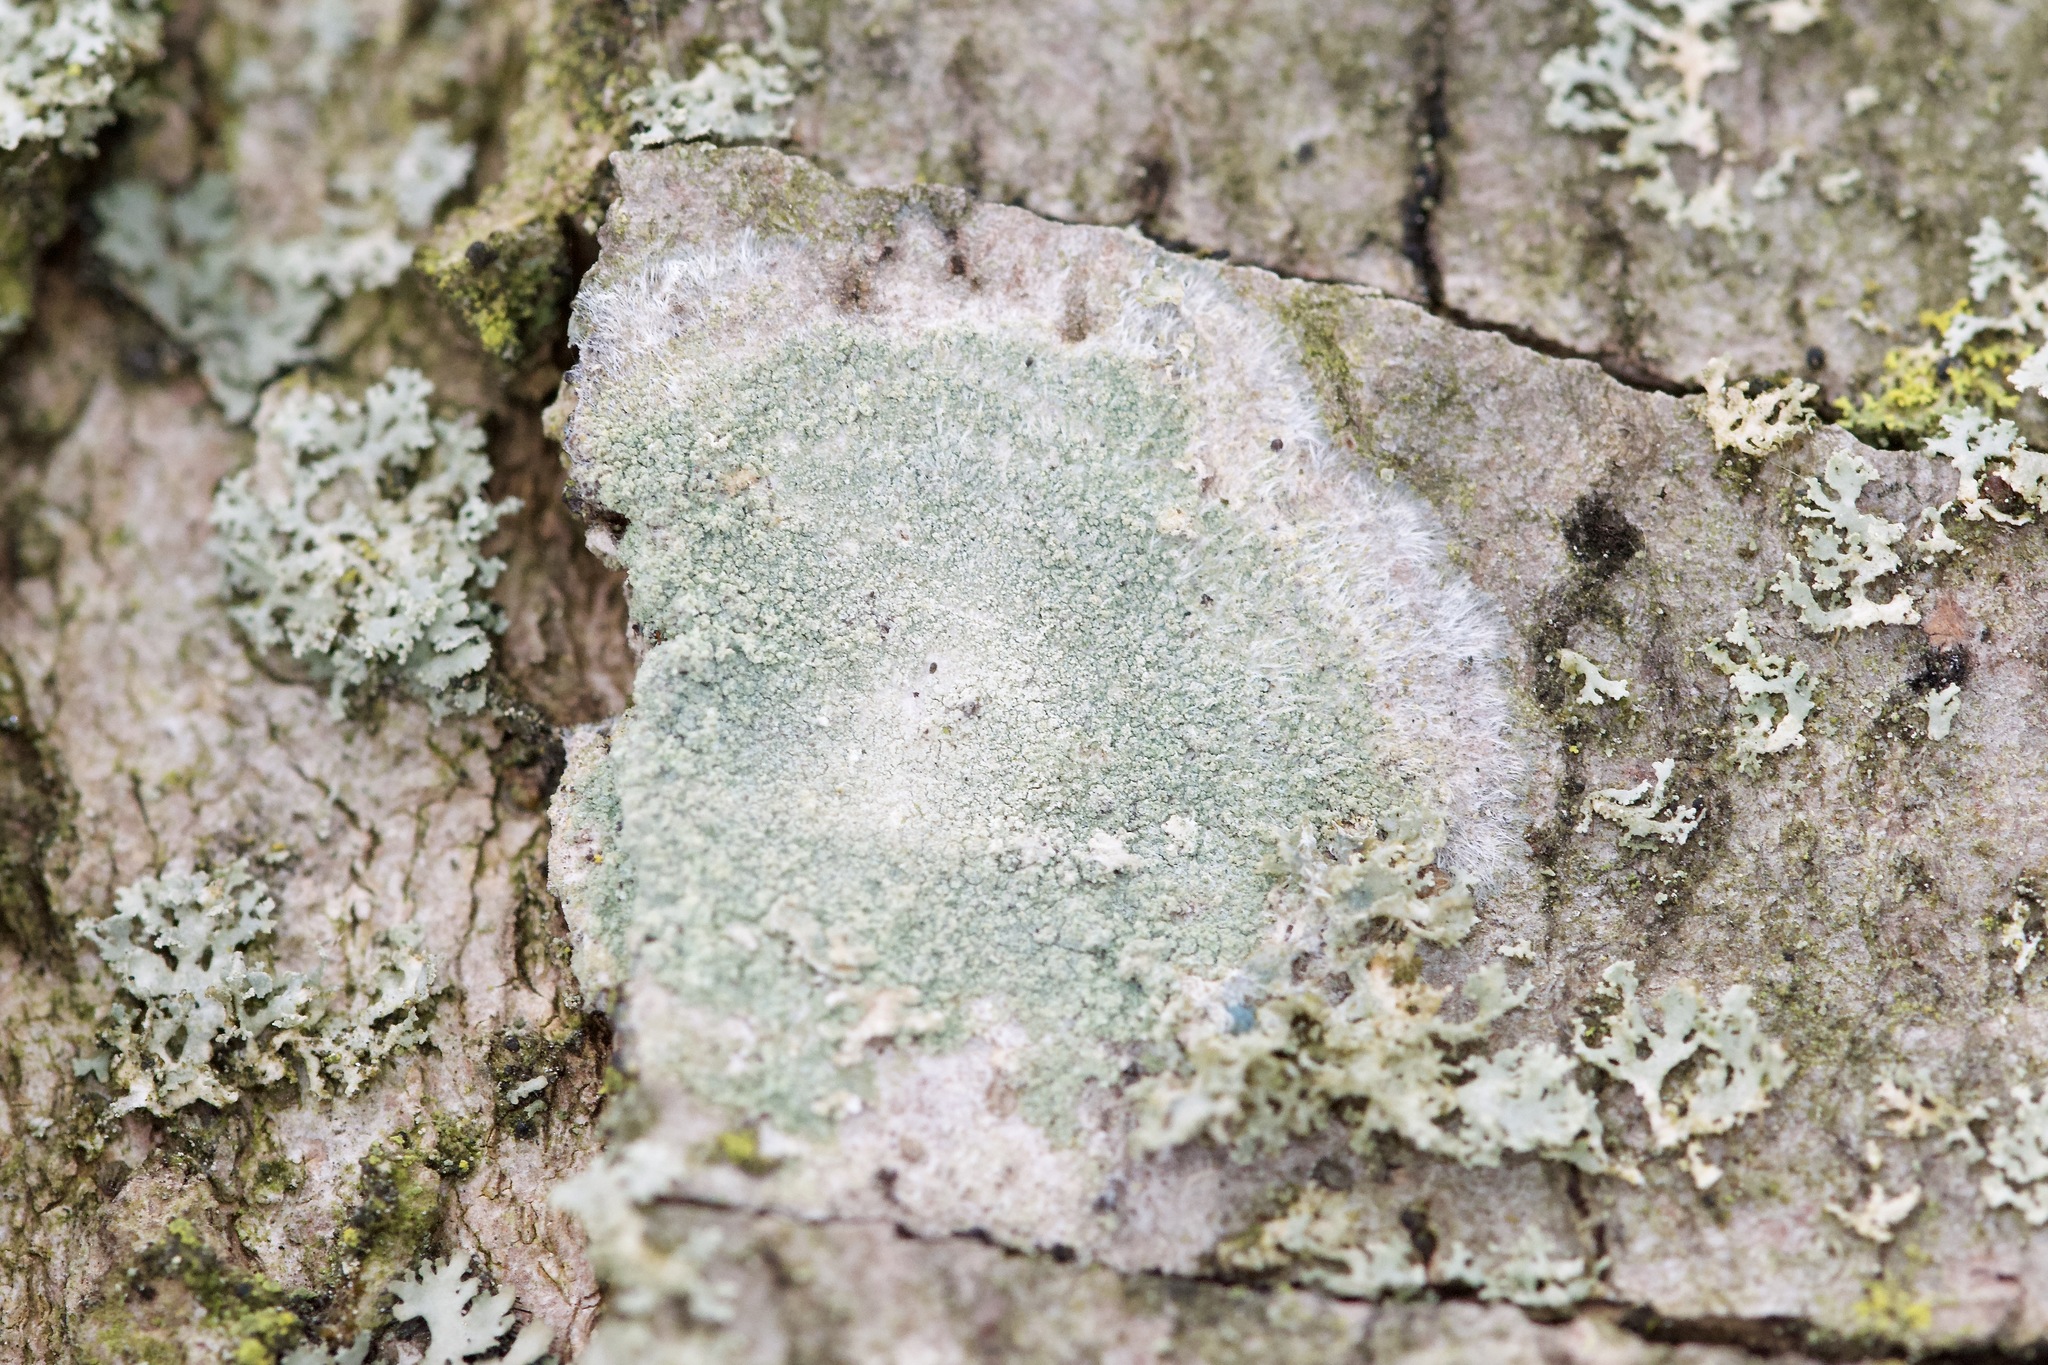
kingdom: Fungi
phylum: Ascomycota
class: Lecanoromycetes
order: Pertusariales
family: Pertusariaceae
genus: Verseghya
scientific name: Verseghya thysanophora
